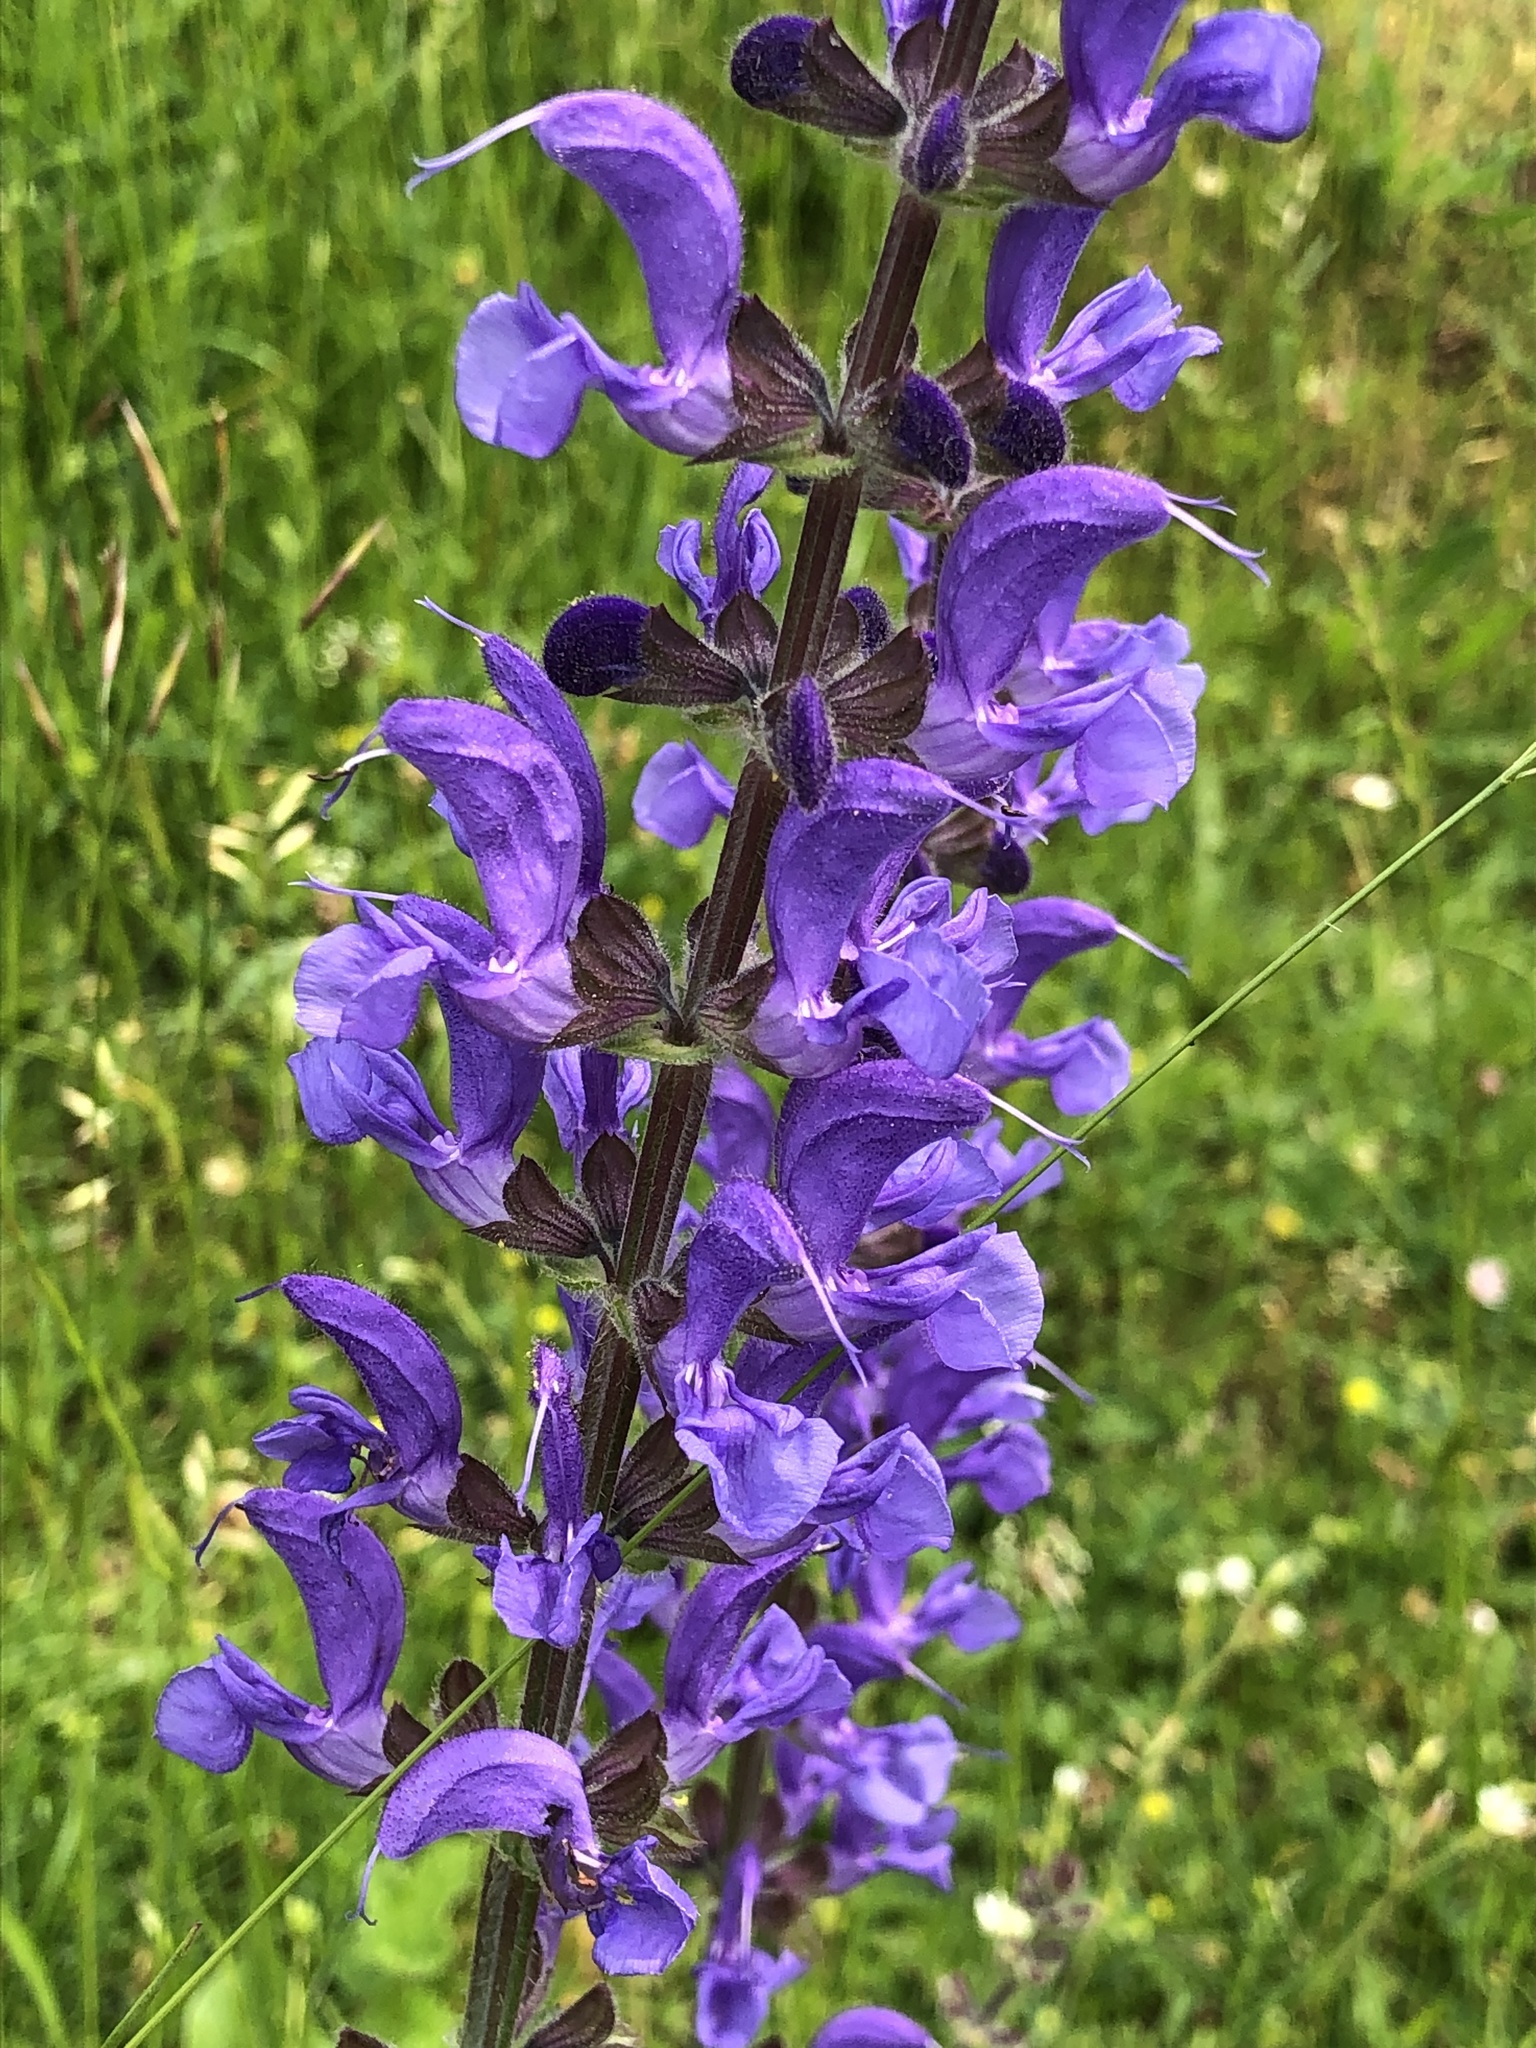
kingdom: Plantae
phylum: Tracheophyta
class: Magnoliopsida
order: Lamiales
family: Lamiaceae
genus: Salvia
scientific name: Salvia pratensis
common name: Meadow sage
